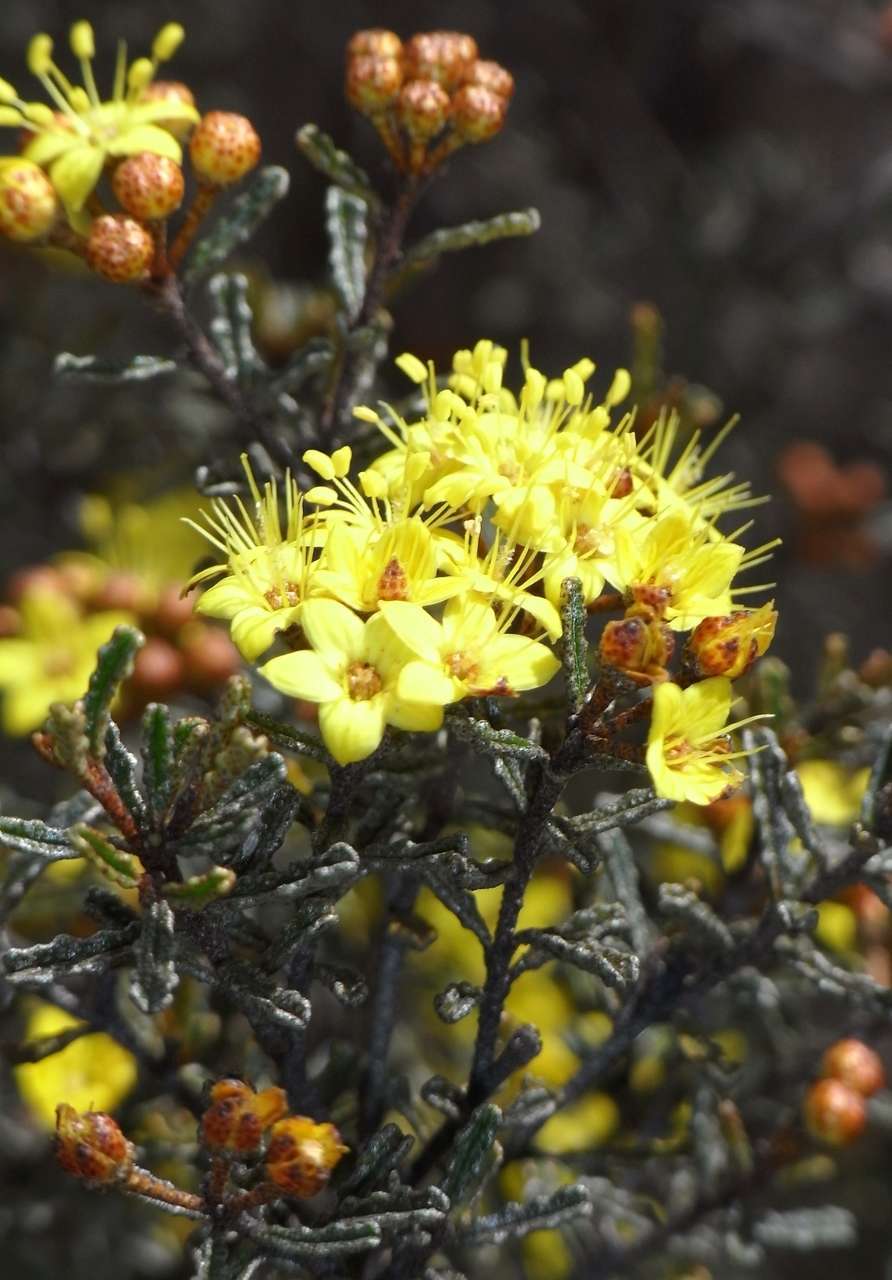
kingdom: Plantae
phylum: Tracheophyta
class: Magnoliopsida
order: Sapindales
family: Rutaceae
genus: Phebalium
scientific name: Phebalium bullatum
